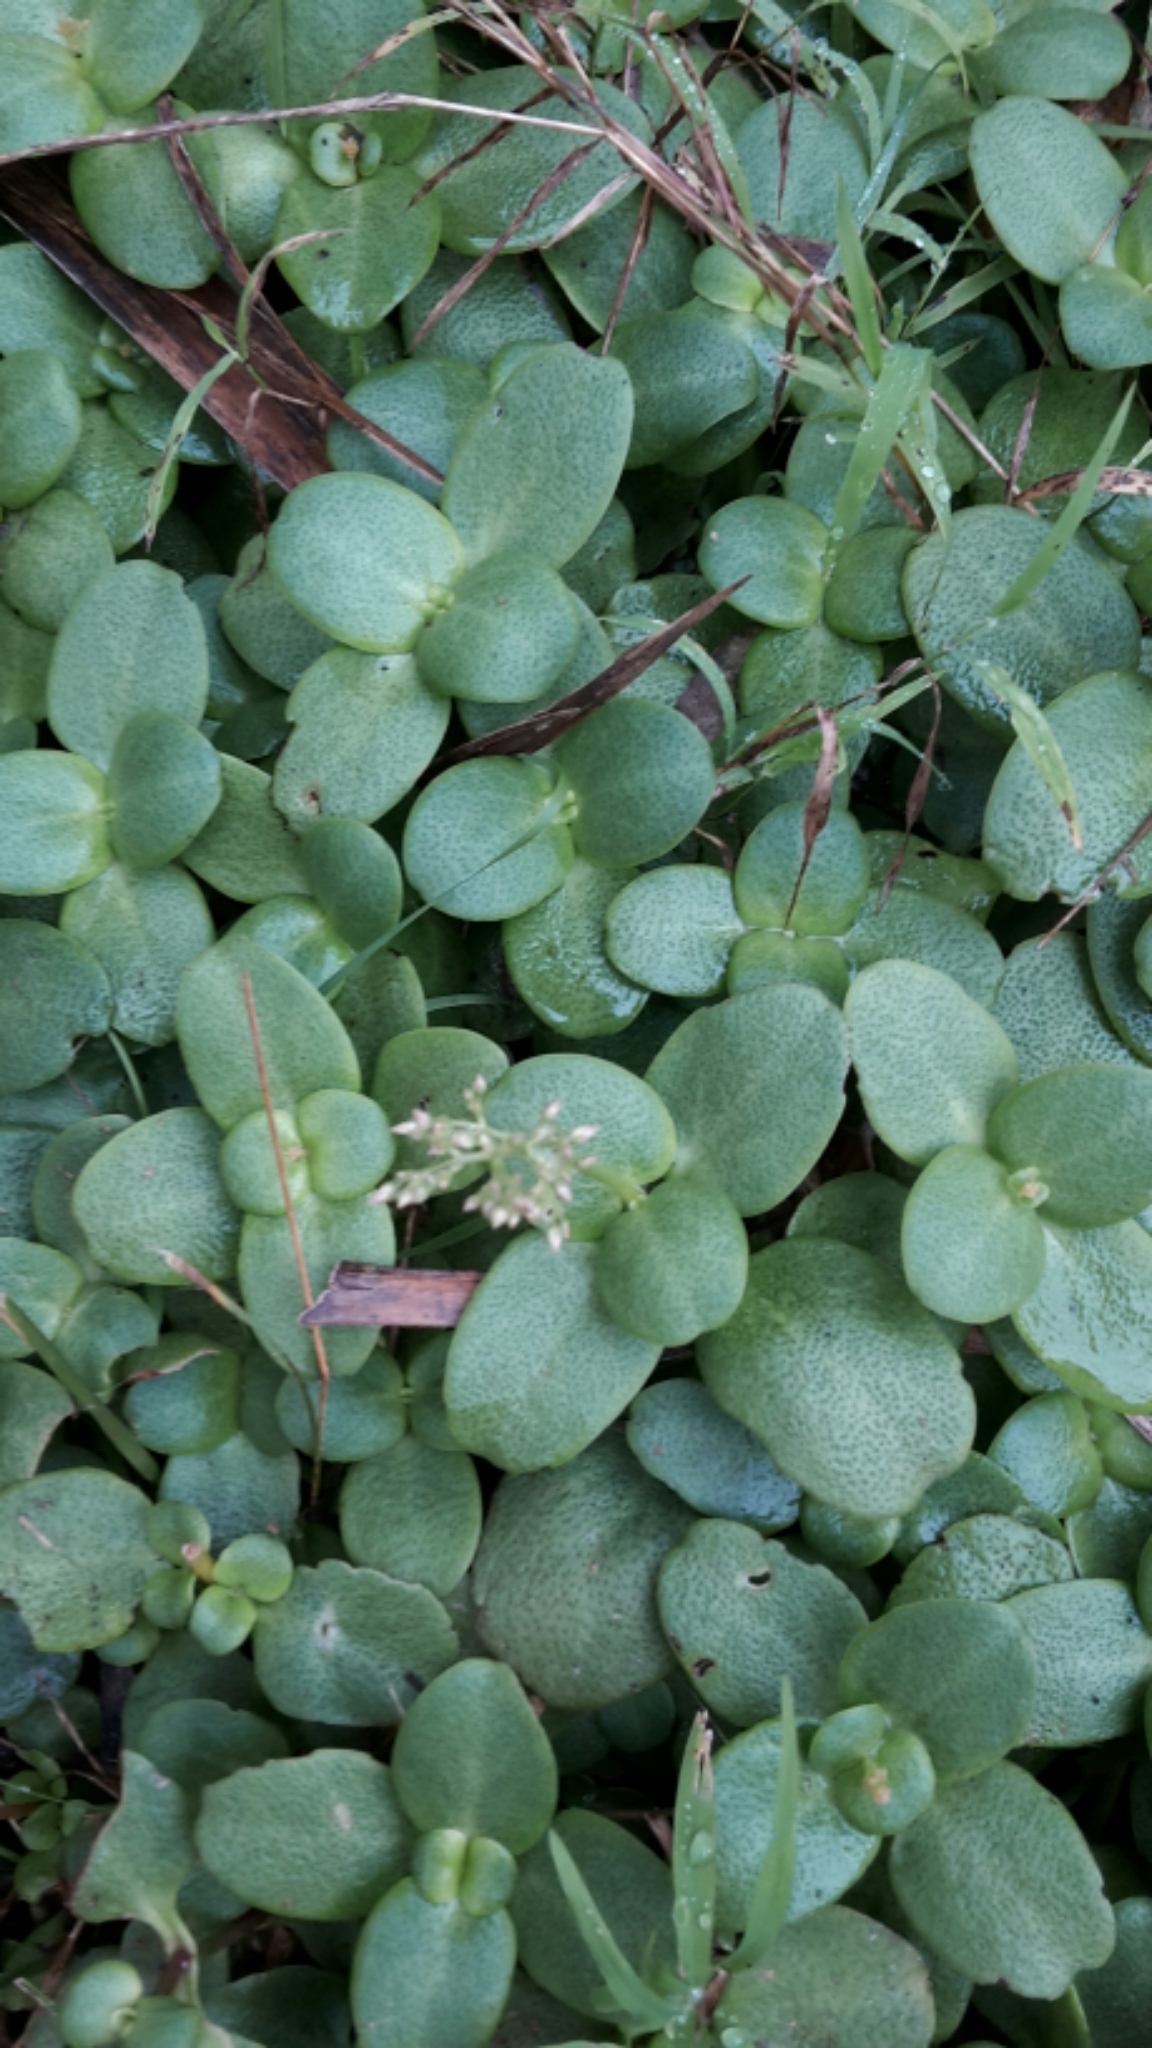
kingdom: Plantae
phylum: Tracheophyta
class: Magnoliopsida
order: Saxifragales
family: Crassulaceae
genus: Crassula
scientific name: Crassula multicava
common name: Cape province pygmyweed
